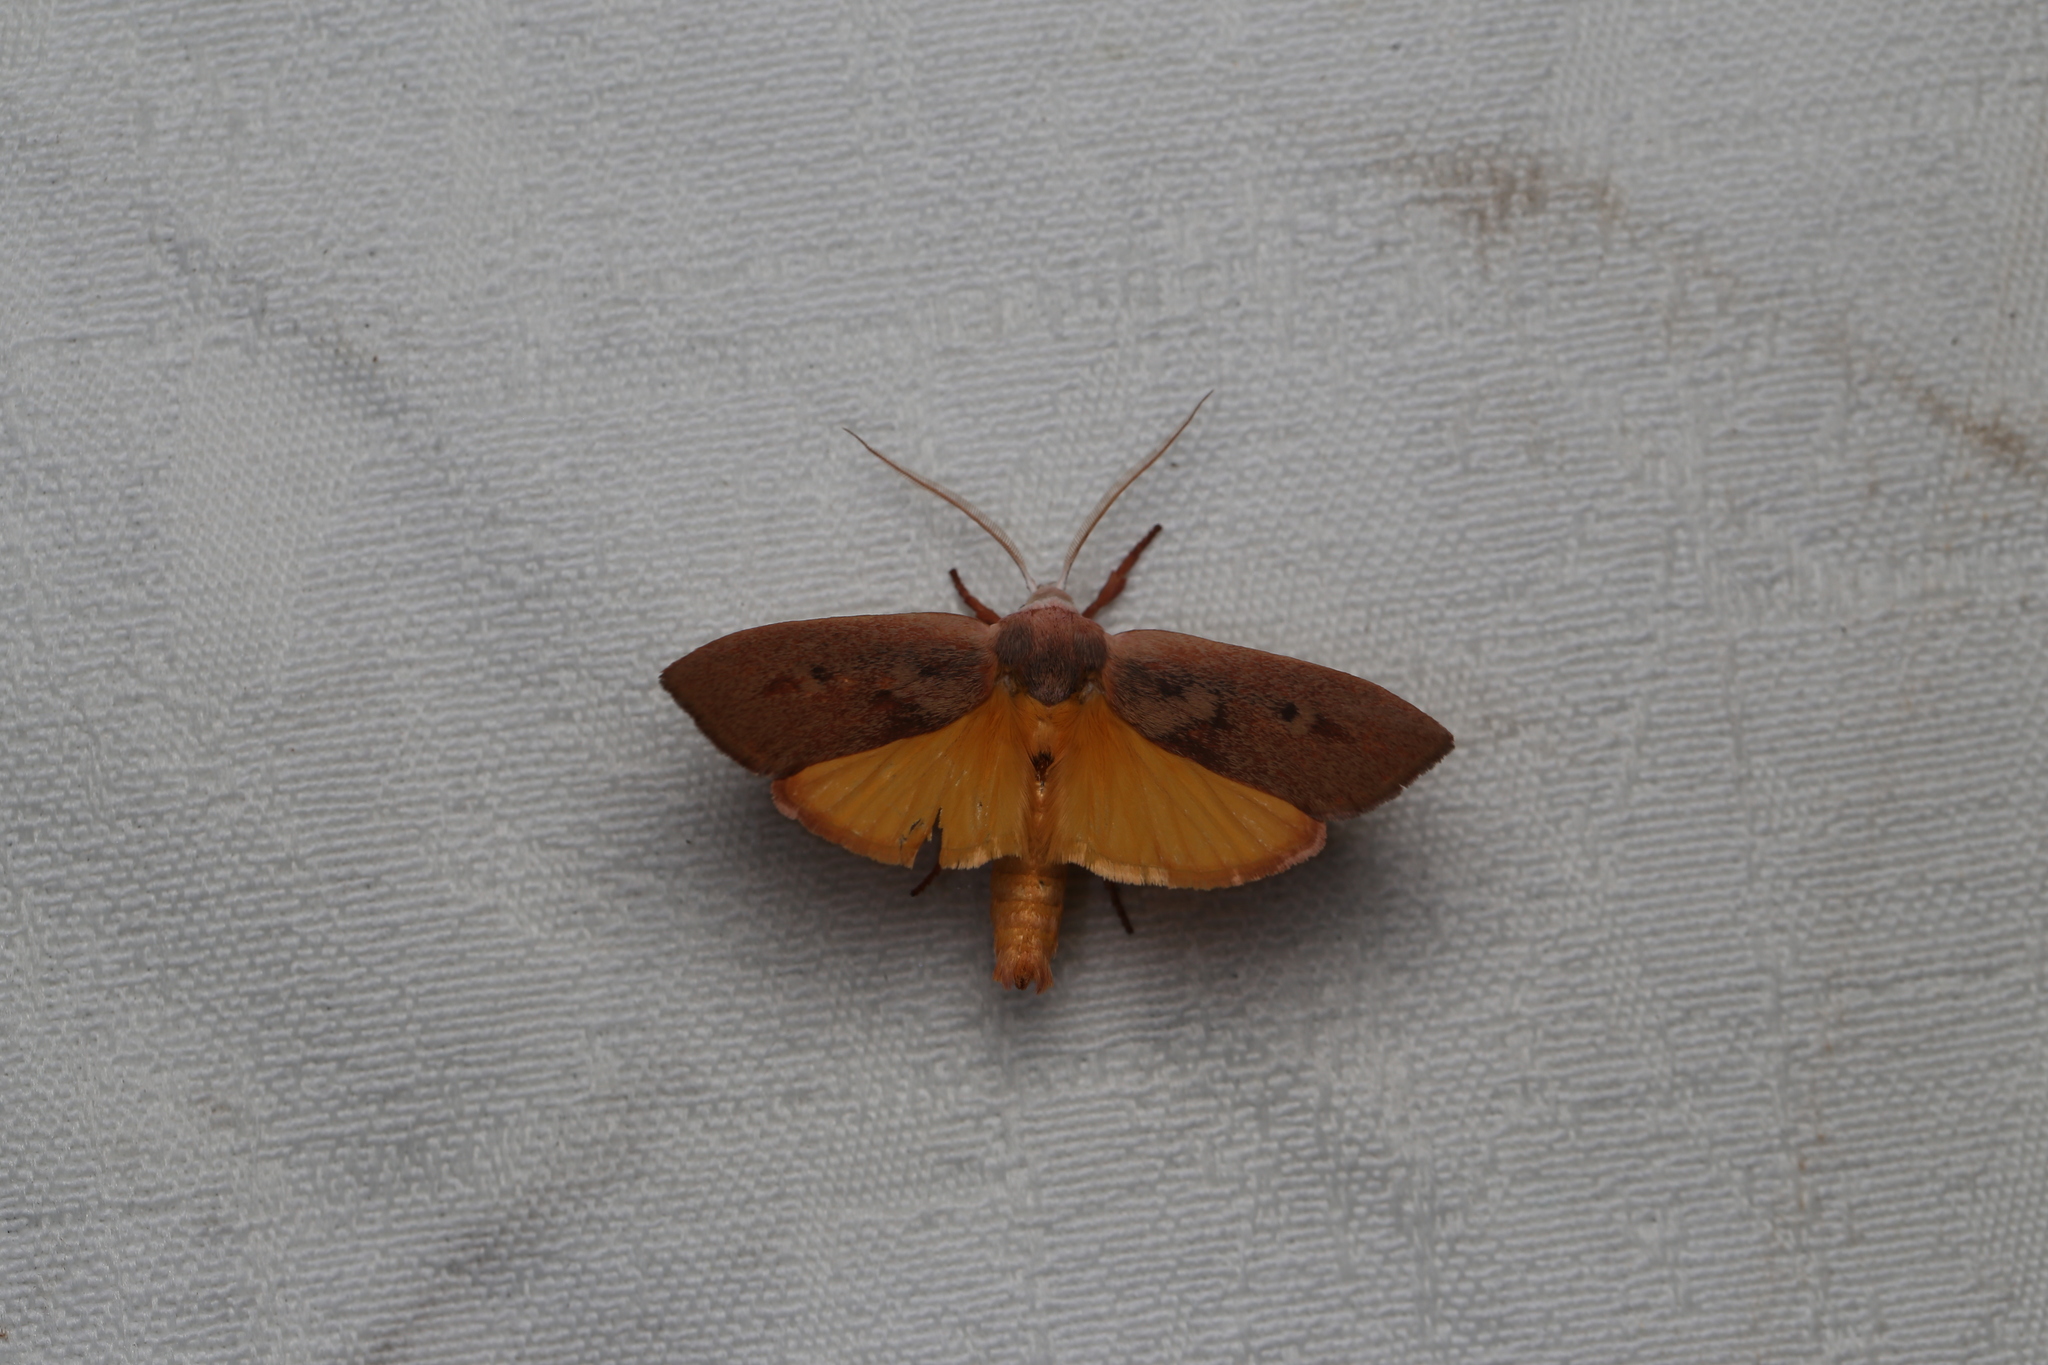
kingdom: Animalia
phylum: Arthropoda
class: Insecta
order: Lepidoptera
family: Xyloryctidae
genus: Cryptophasa
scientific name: Cryptophasa rubescens
